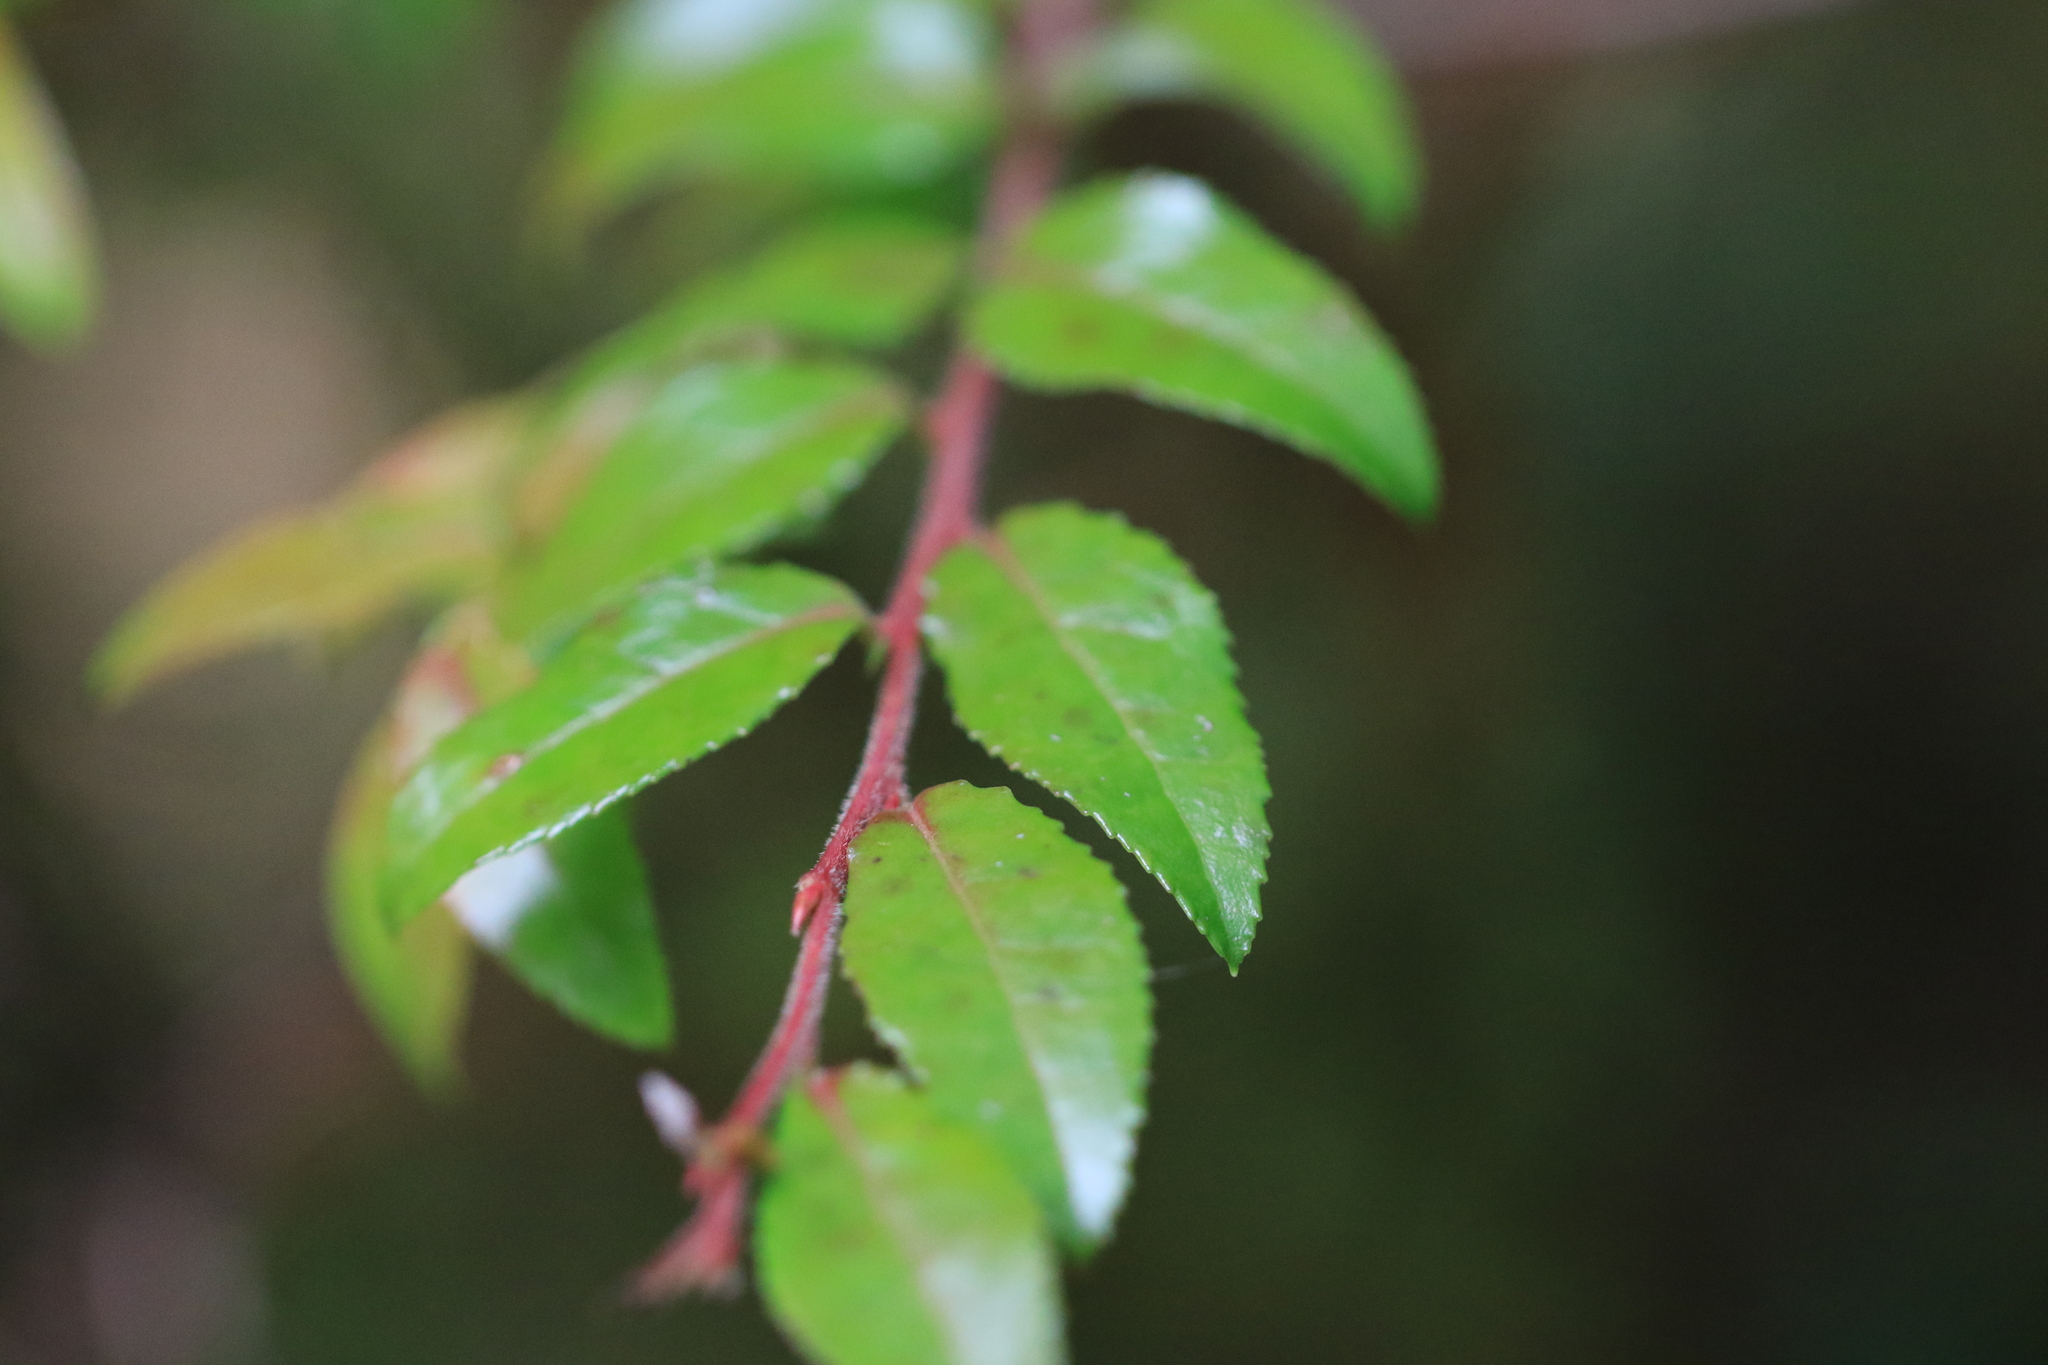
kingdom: Plantae
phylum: Tracheophyta
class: Magnoliopsida
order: Ericales
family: Ericaceae
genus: Vaccinium
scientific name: Vaccinium ovatum
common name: California-huckleberry
